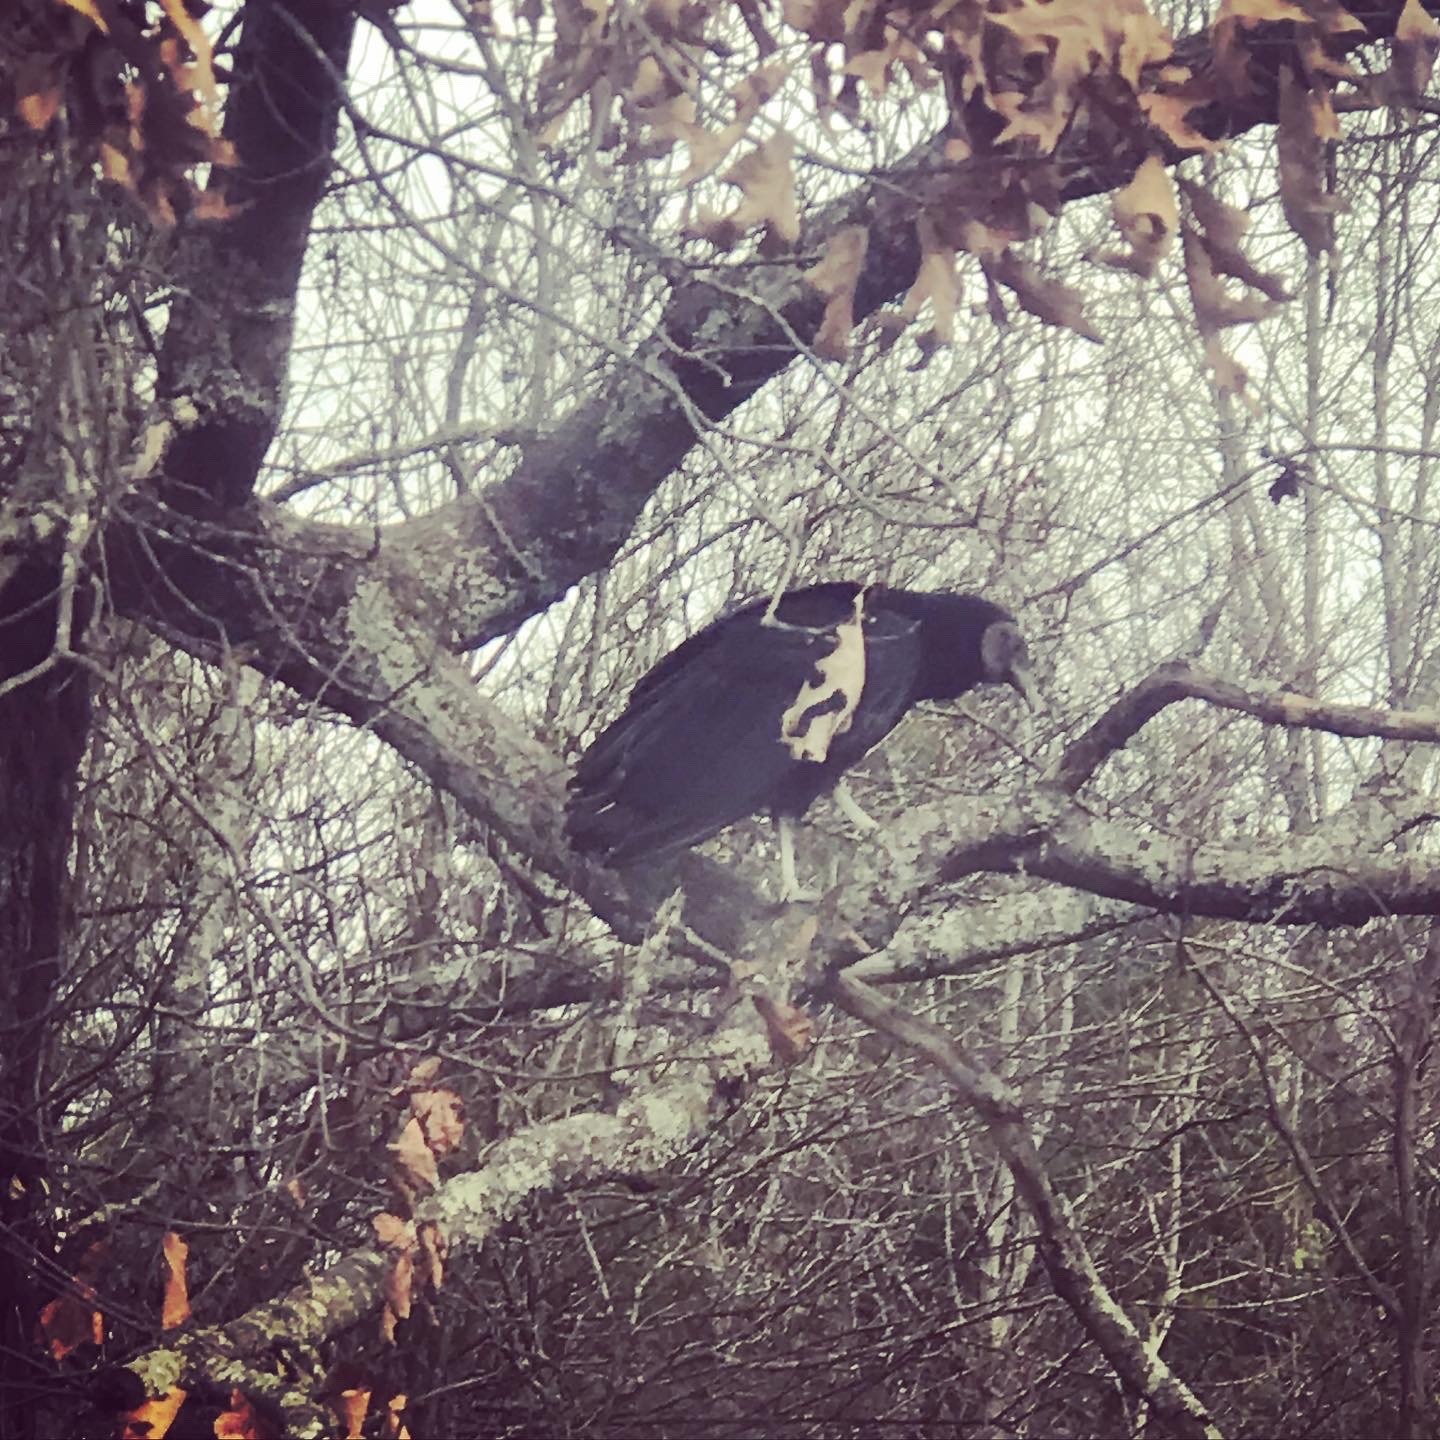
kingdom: Animalia
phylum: Chordata
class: Aves
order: Accipitriformes
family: Cathartidae
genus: Coragyps
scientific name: Coragyps atratus
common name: Black vulture
